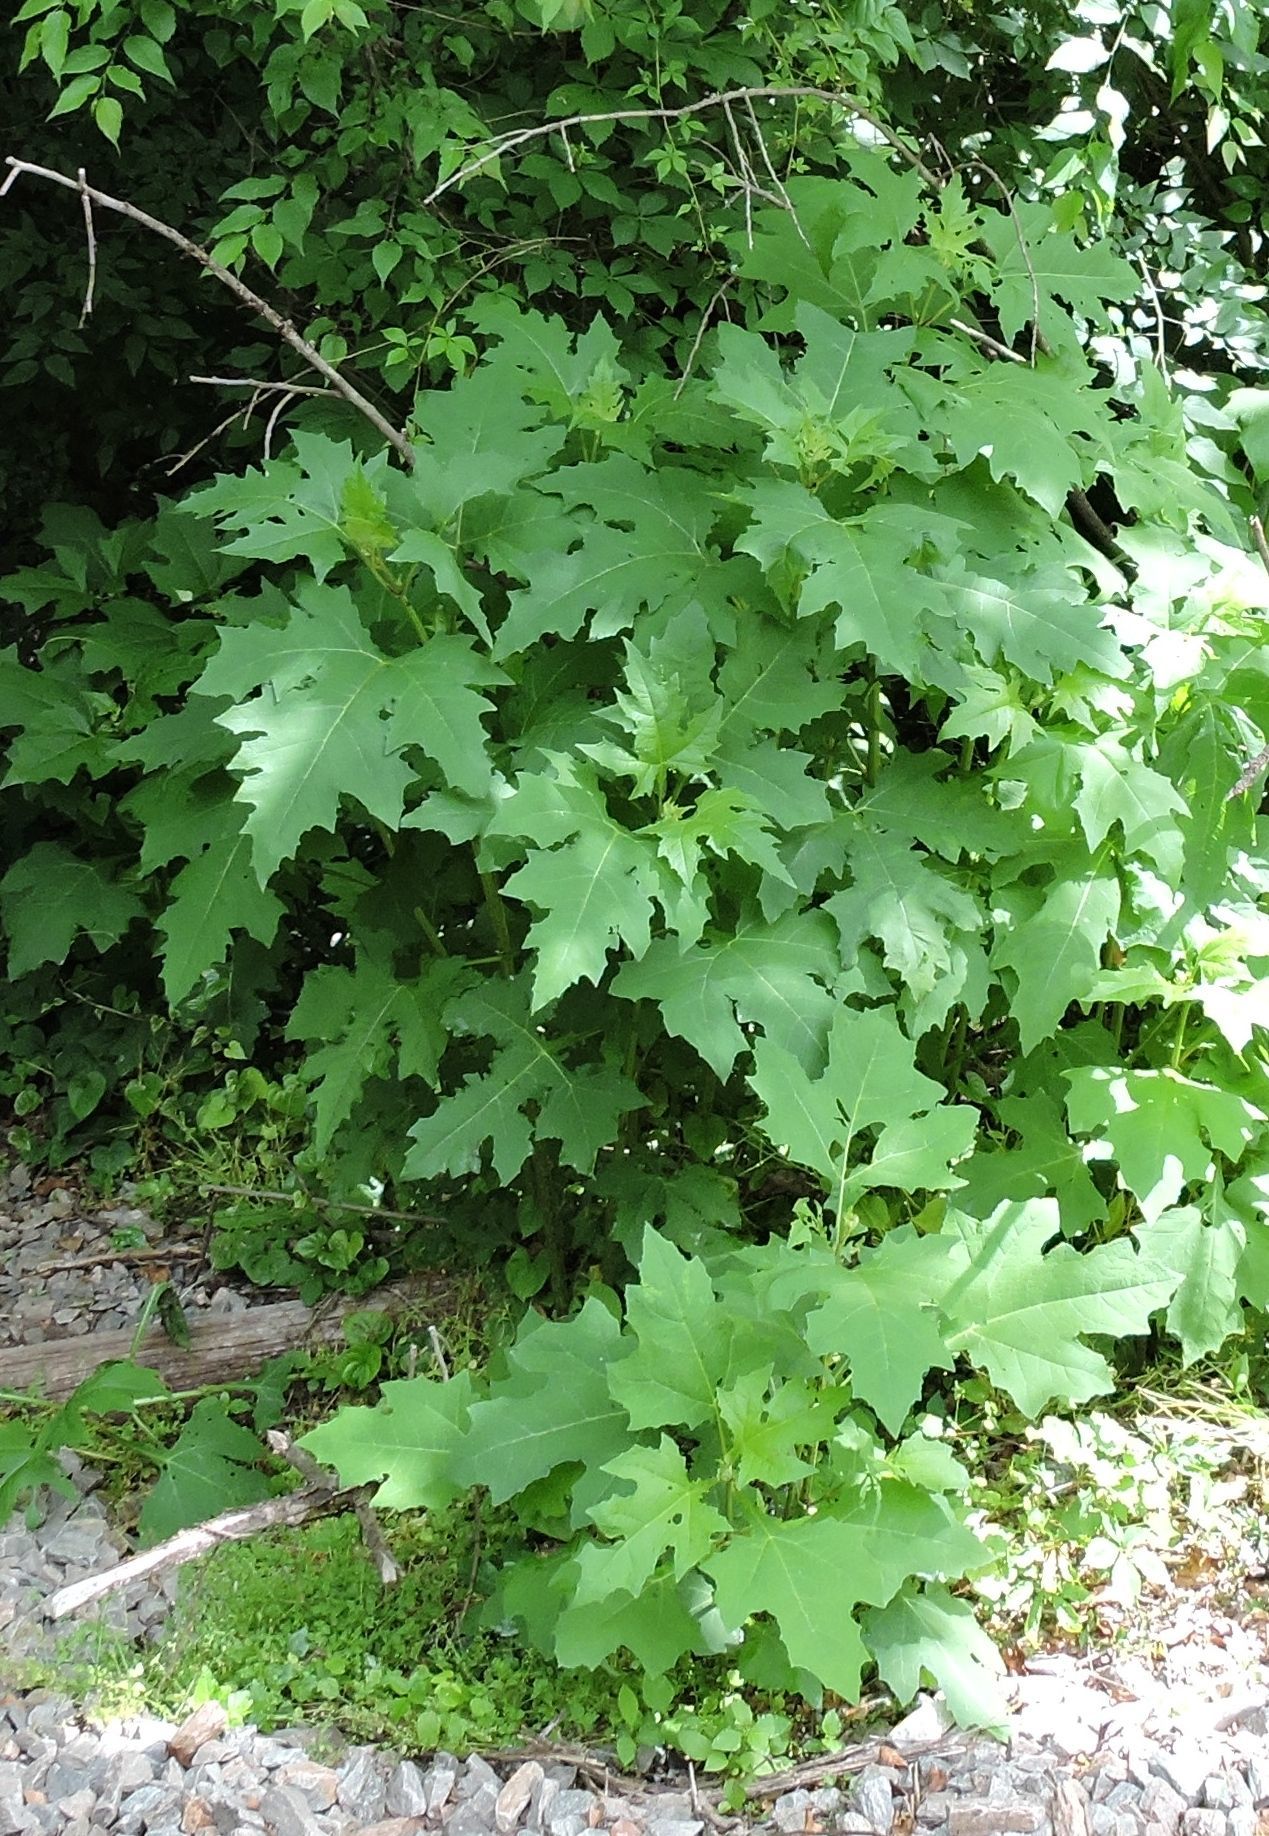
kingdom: Plantae
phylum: Tracheophyta
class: Magnoliopsida
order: Asterales
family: Asteraceae
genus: Smallanthus
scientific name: Smallanthus uvedalia
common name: Bear's-foot
